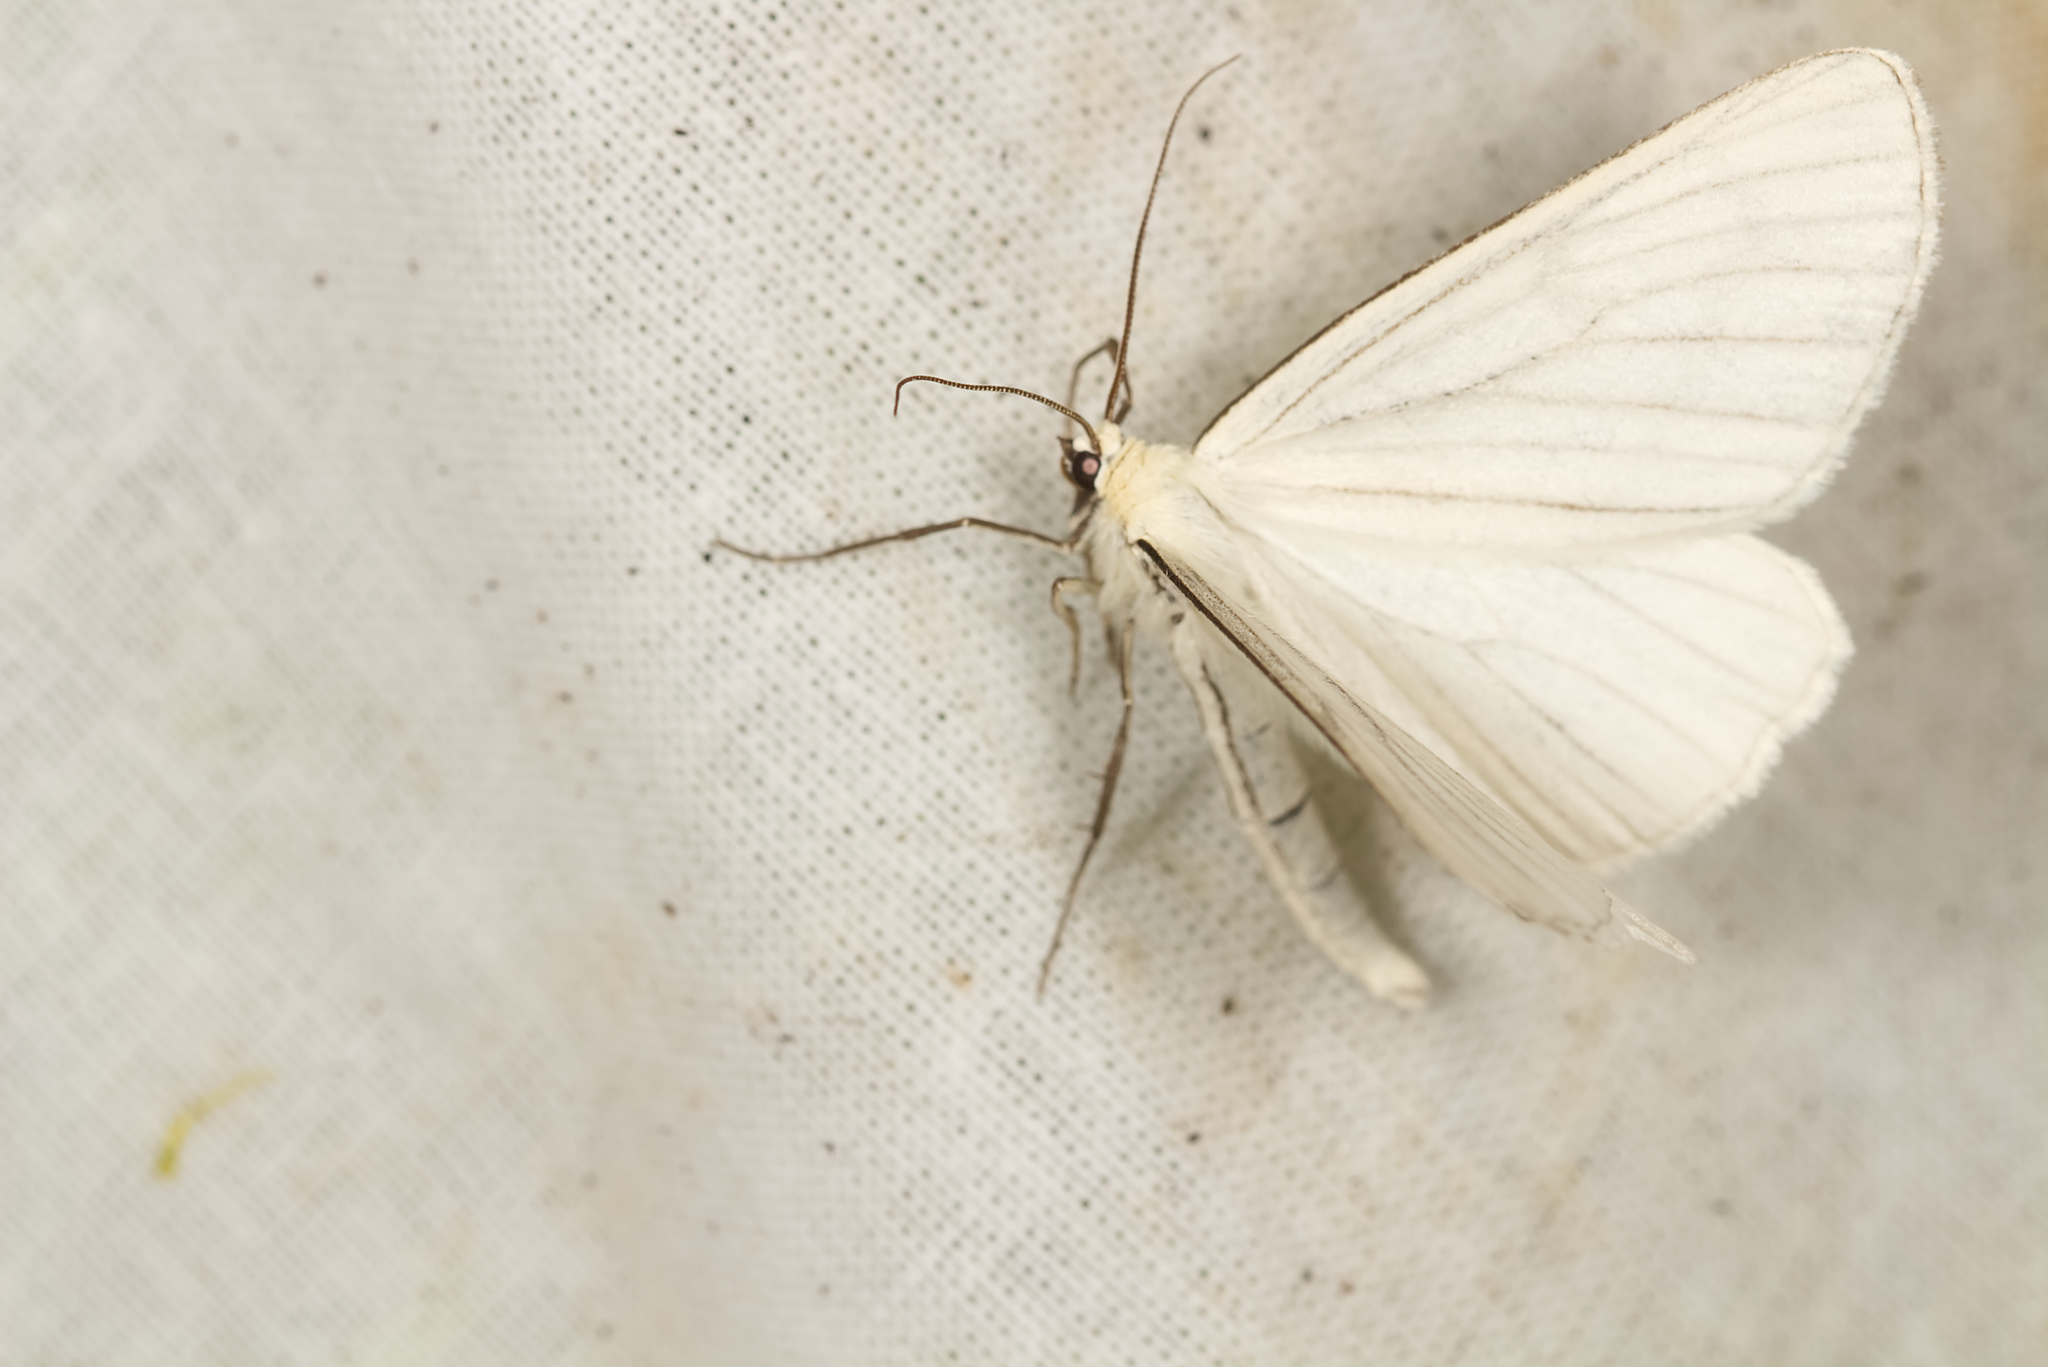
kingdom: Animalia
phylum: Arthropoda
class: Insecta
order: Lepidoptera
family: Geometridae
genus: Siona
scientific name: Siona lineata
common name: Black-veined moth
